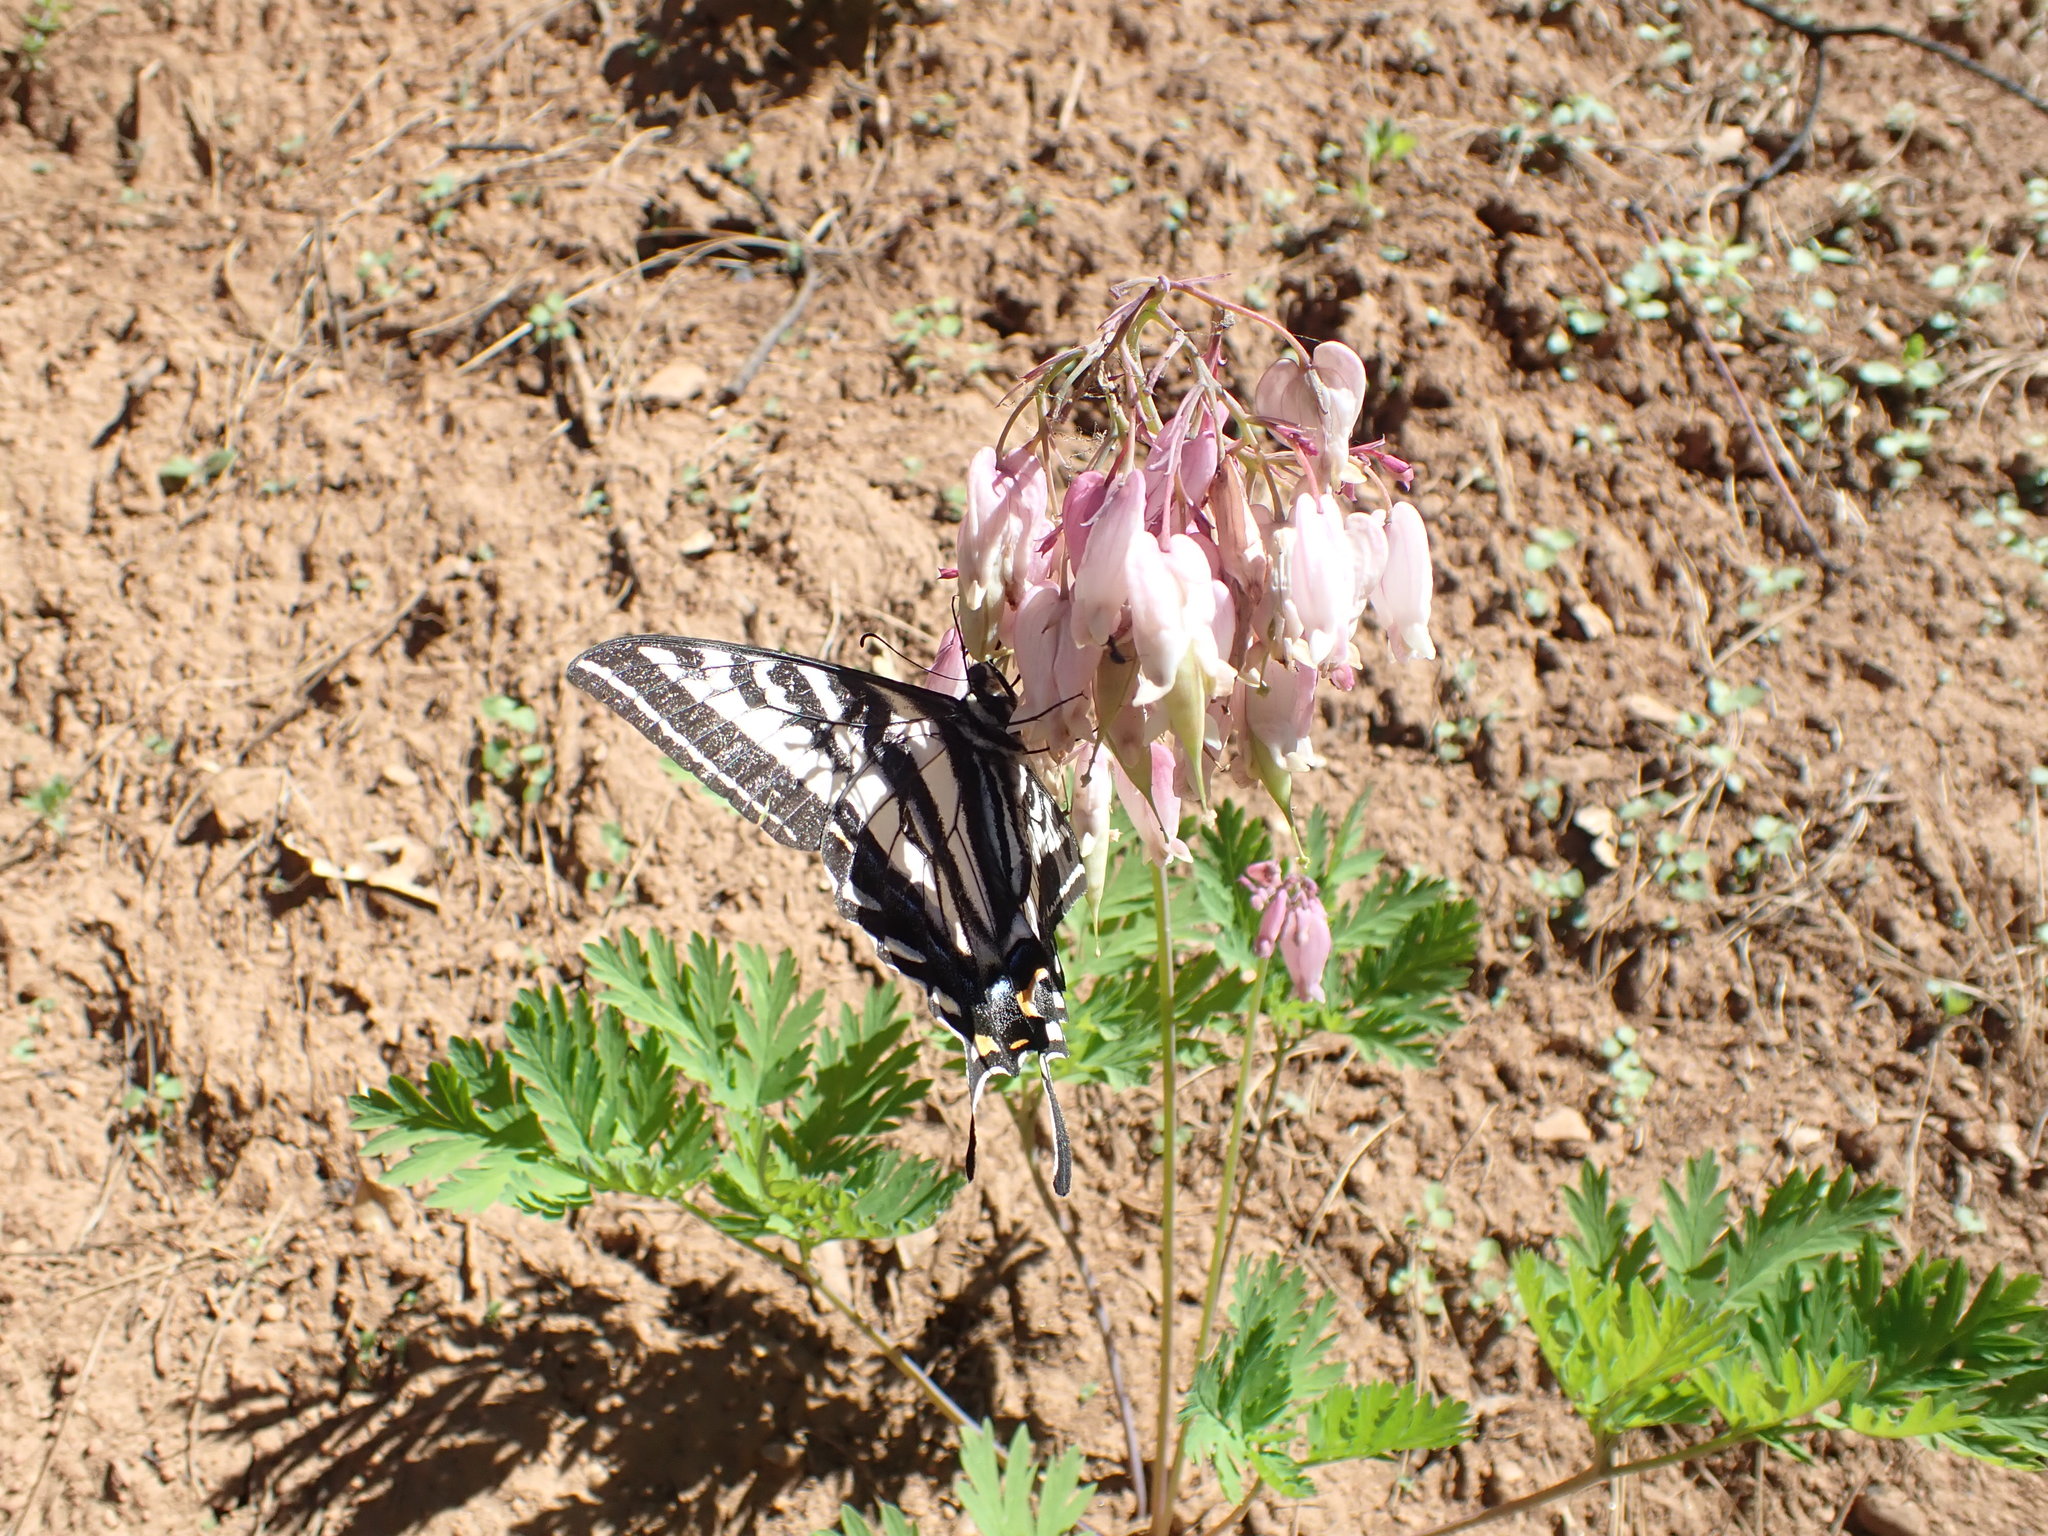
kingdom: Animalia
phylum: Arthropoda
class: Insecta
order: Lepidoptera
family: Papilionidae
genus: Papilio
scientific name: Papilio eurymedon
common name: Pale tiger swallowtail
